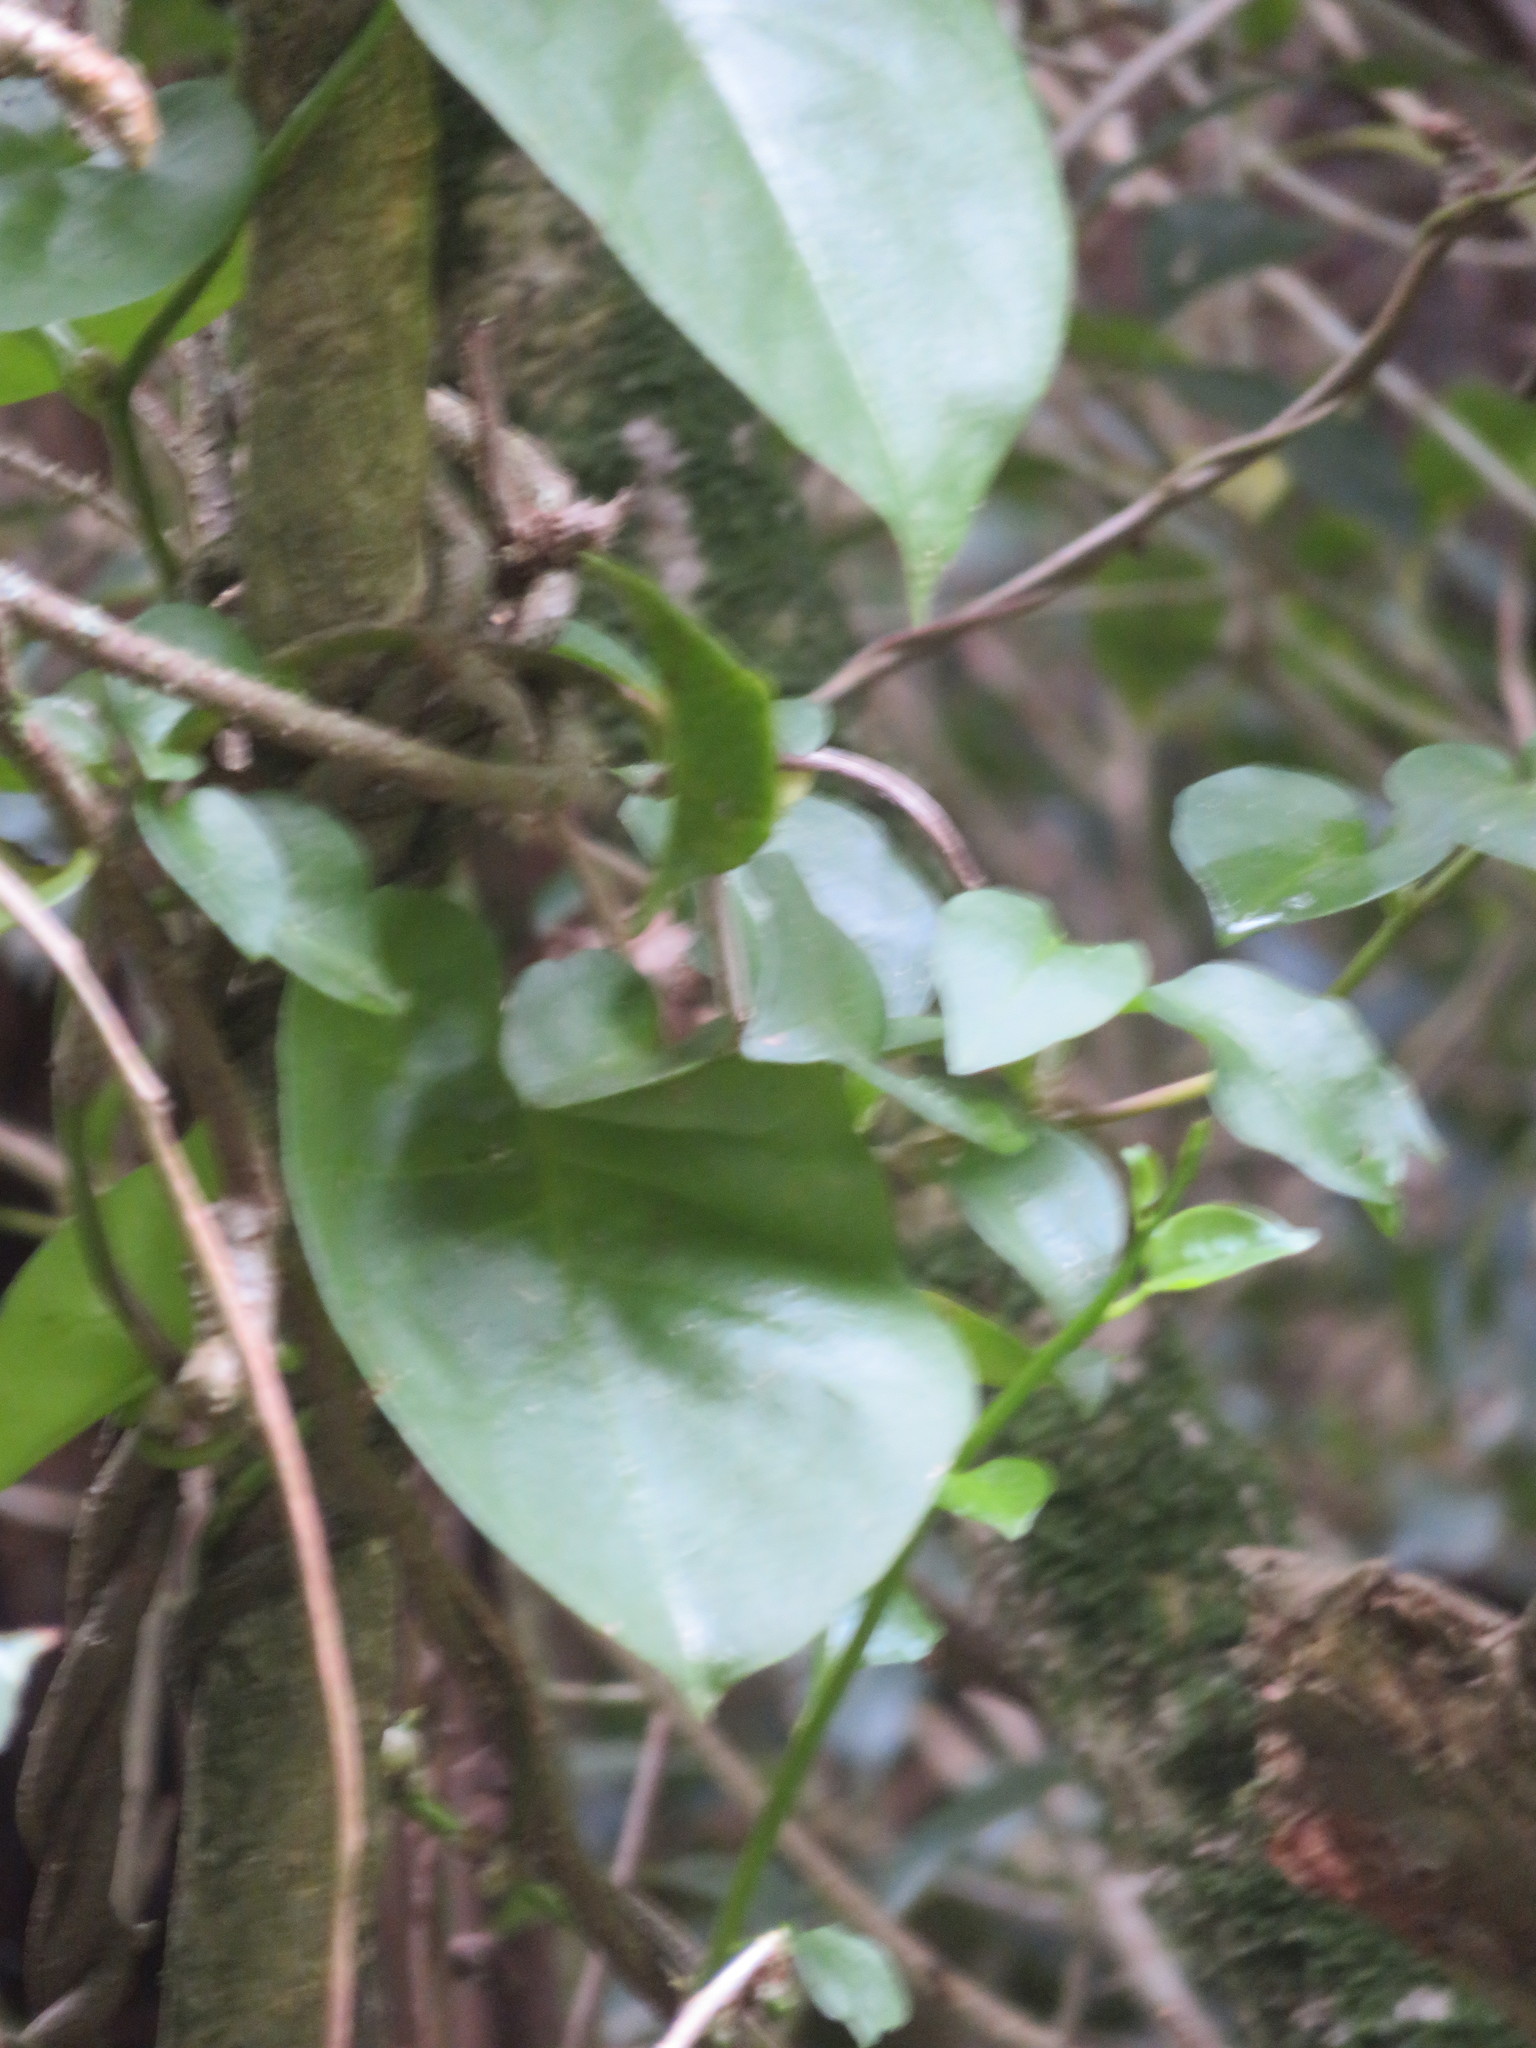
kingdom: Plantae
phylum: Tracheophyta
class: Magnoliopsida
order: Caryophyllales
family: Basellaceae
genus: Anredera
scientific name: Anredera cordifolia
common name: Heartleaf madeiravine
